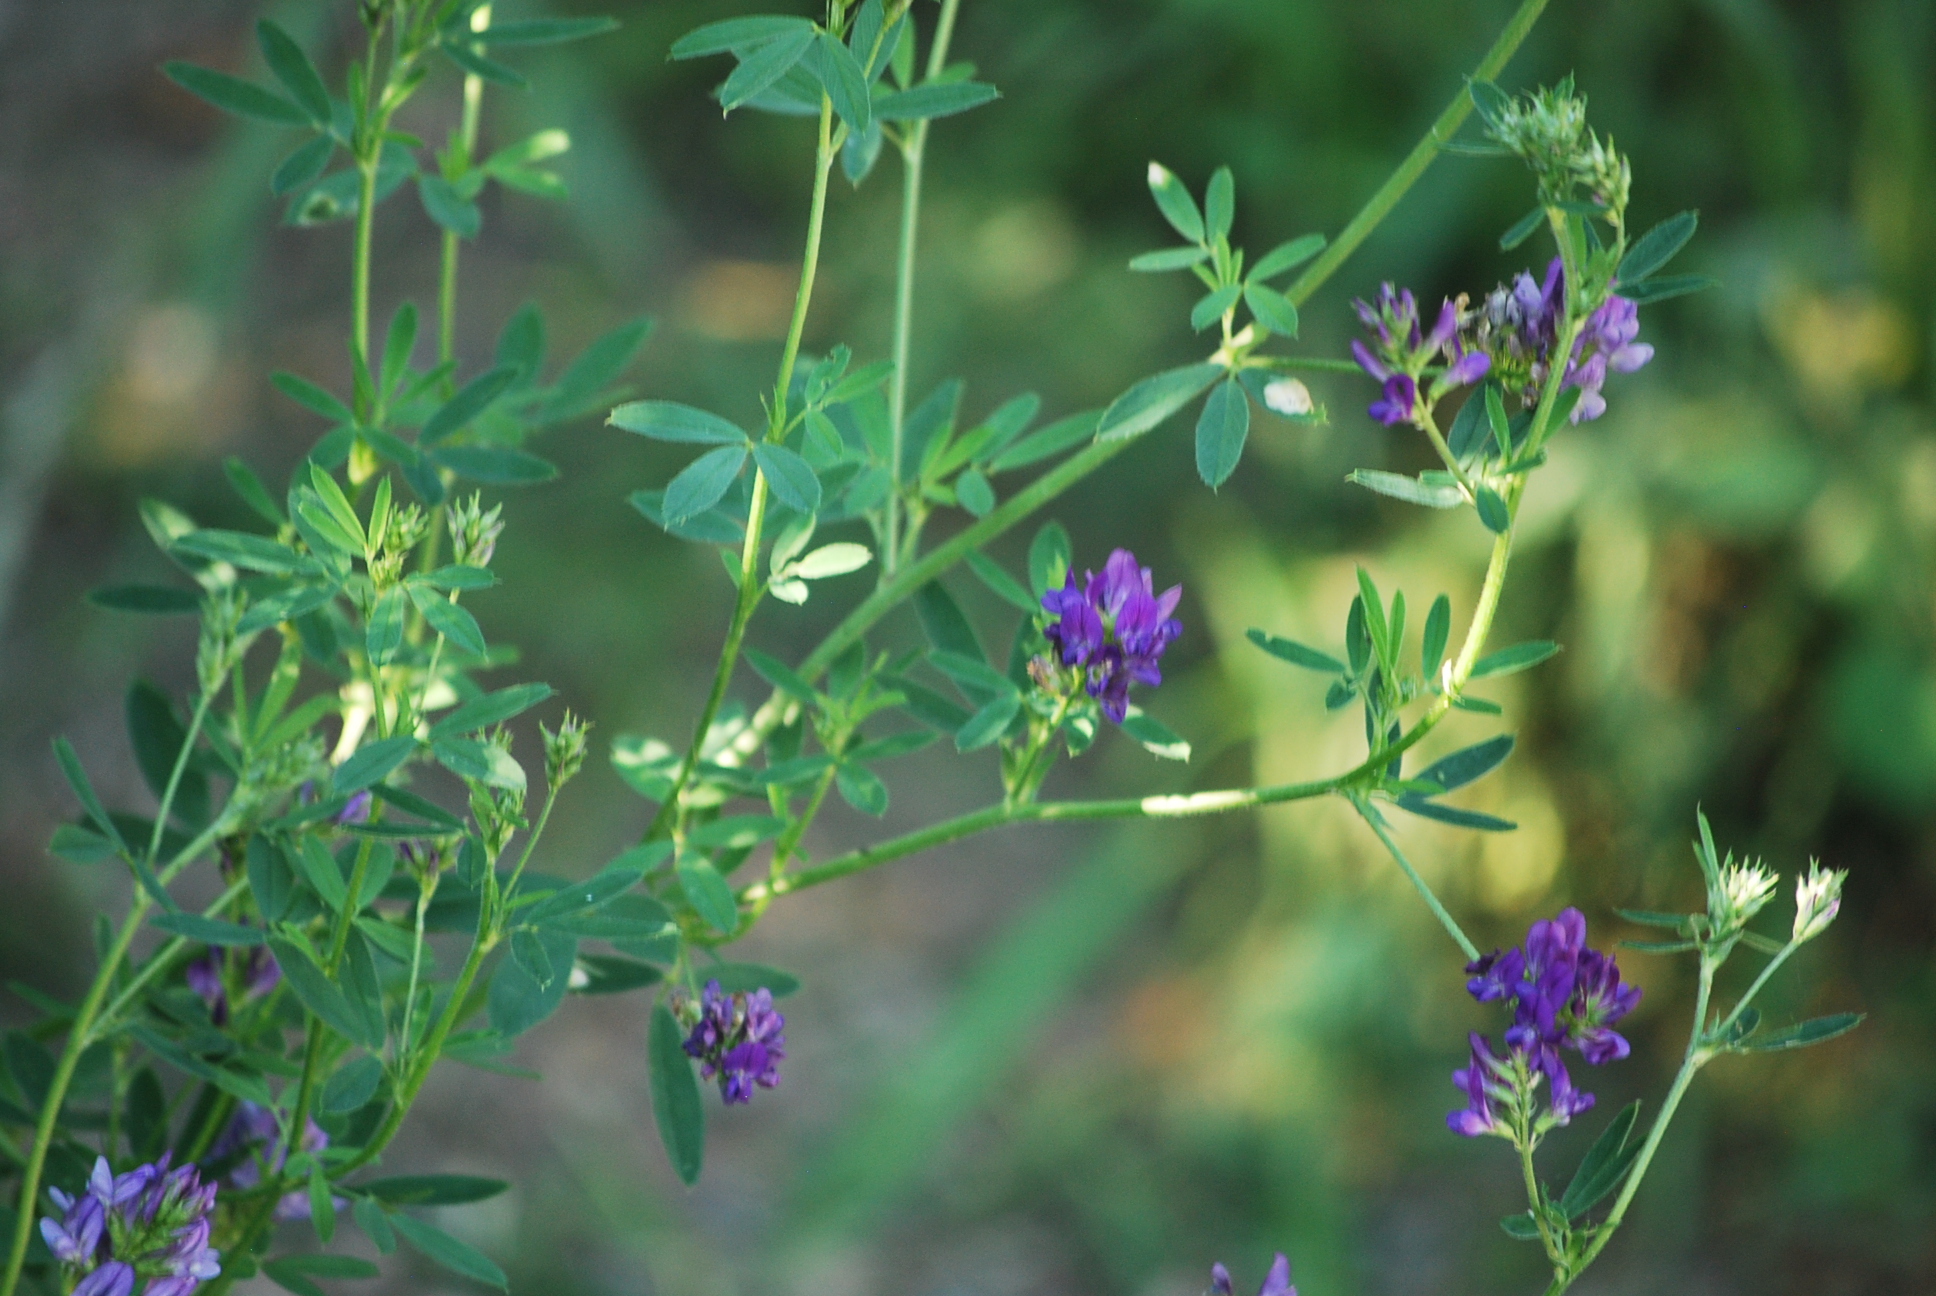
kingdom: Plantae
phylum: Tracheophyta
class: Magnoliopsida
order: Fabales
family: Fabaceae
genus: Medicago
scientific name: Medicago sativa
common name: Alfalfa
